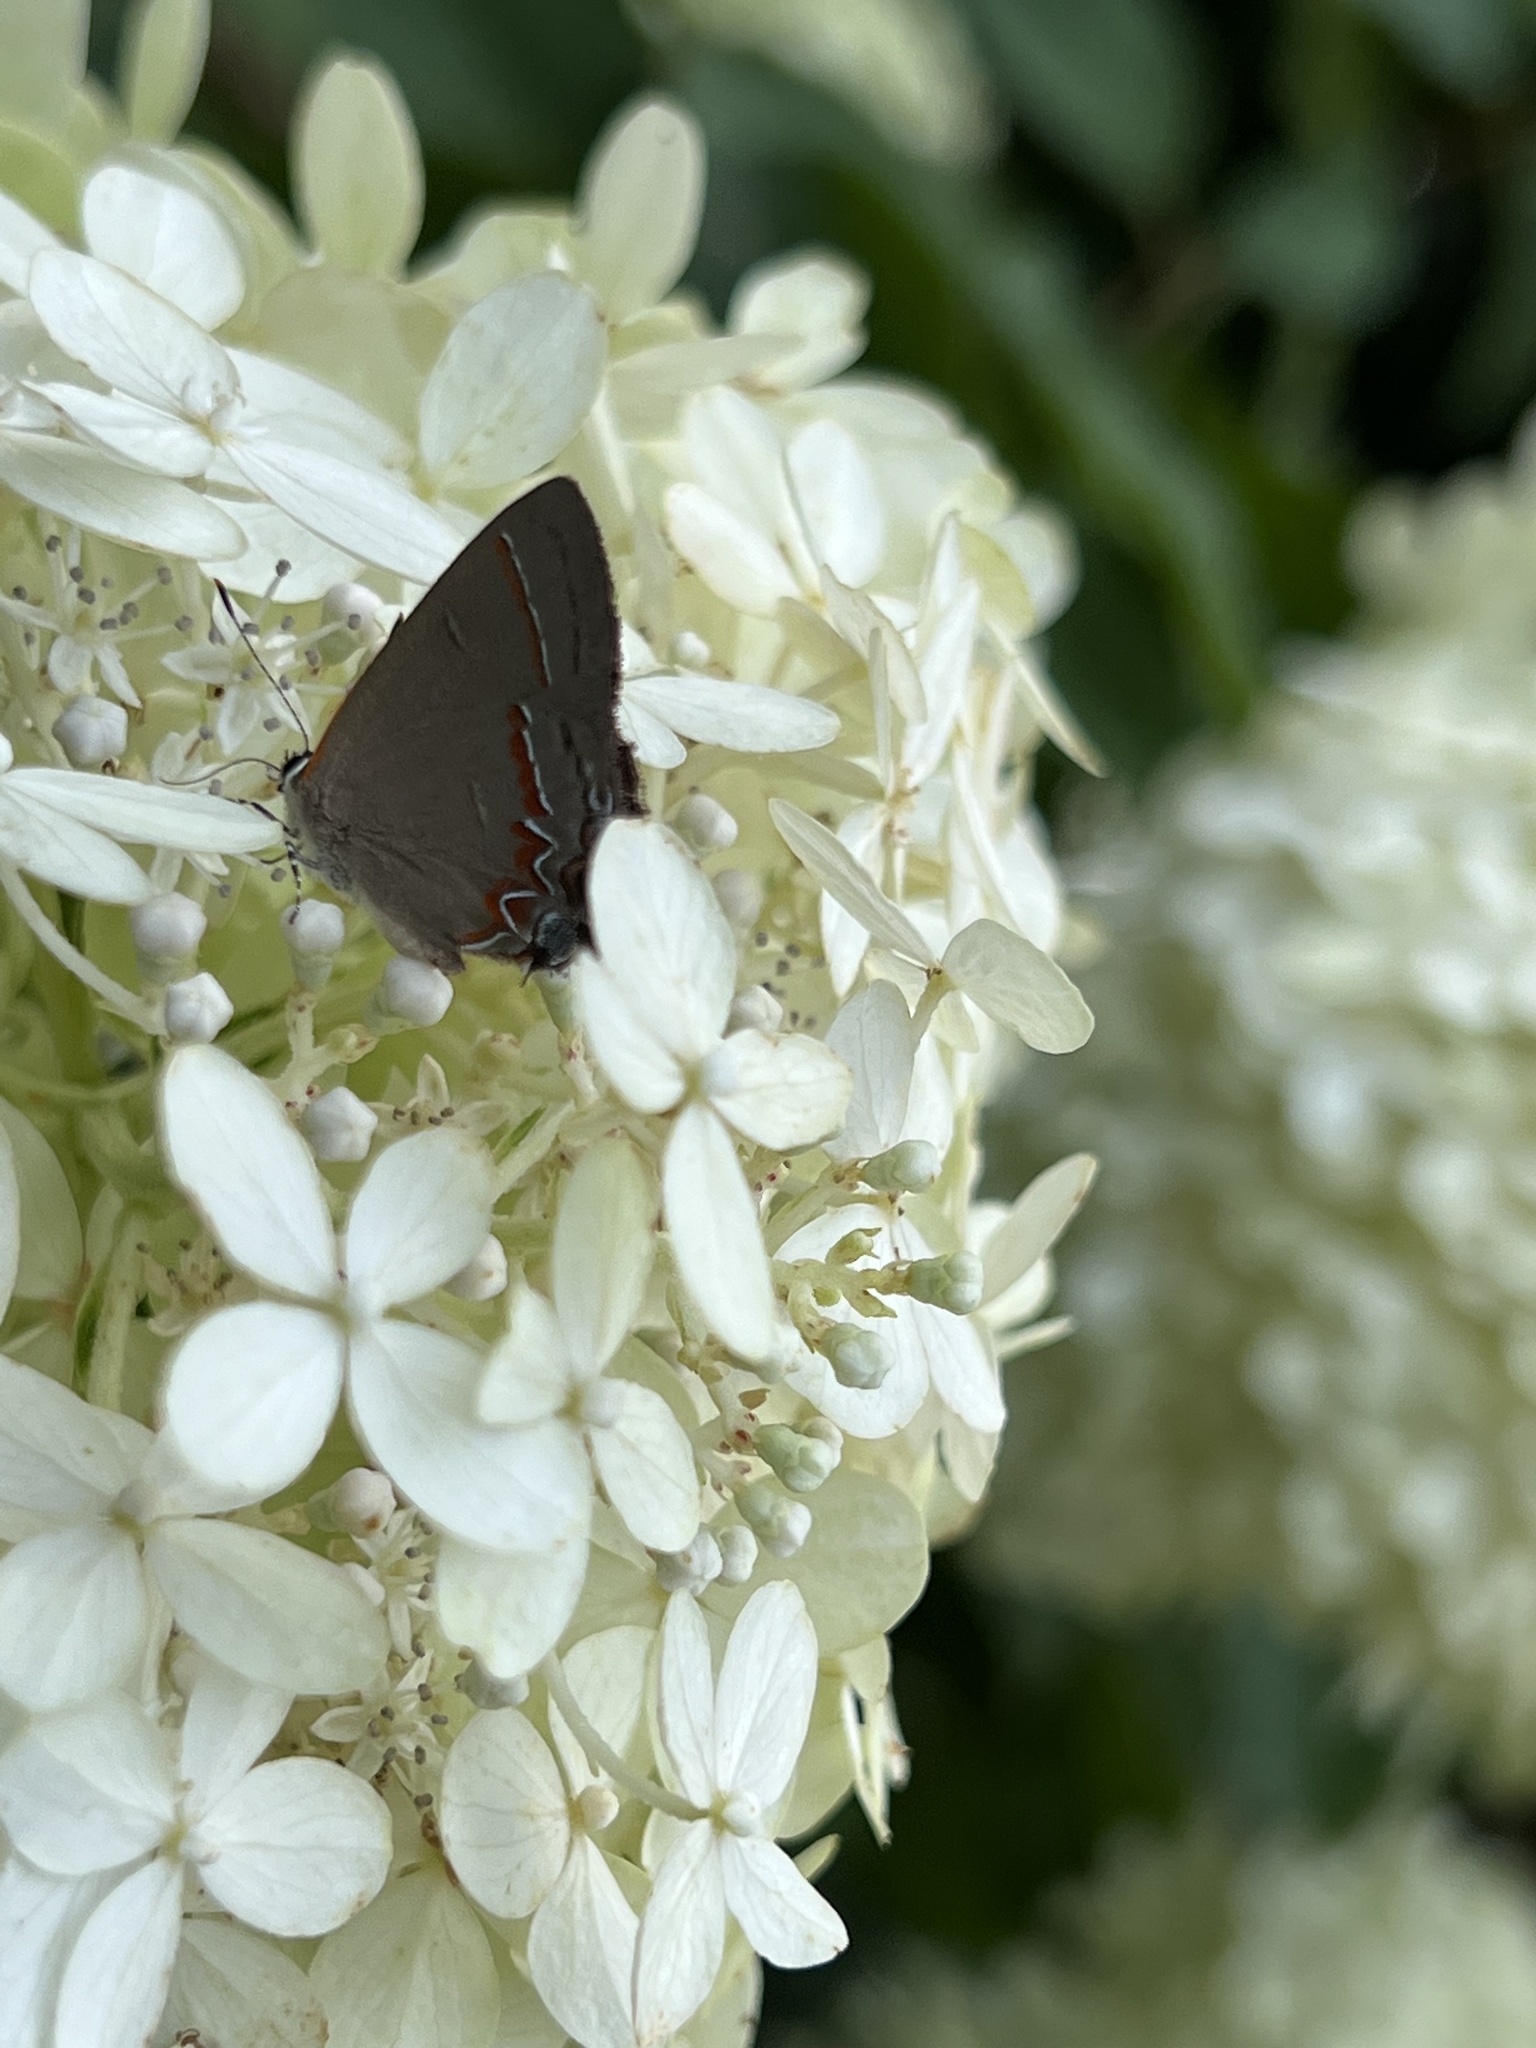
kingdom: Animalia
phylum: Arthropoda
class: Insecta
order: Lepidoptera
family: Lycaenidae
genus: Calycopis
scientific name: Calycopis cecrops
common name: Red-banded hairstreak
